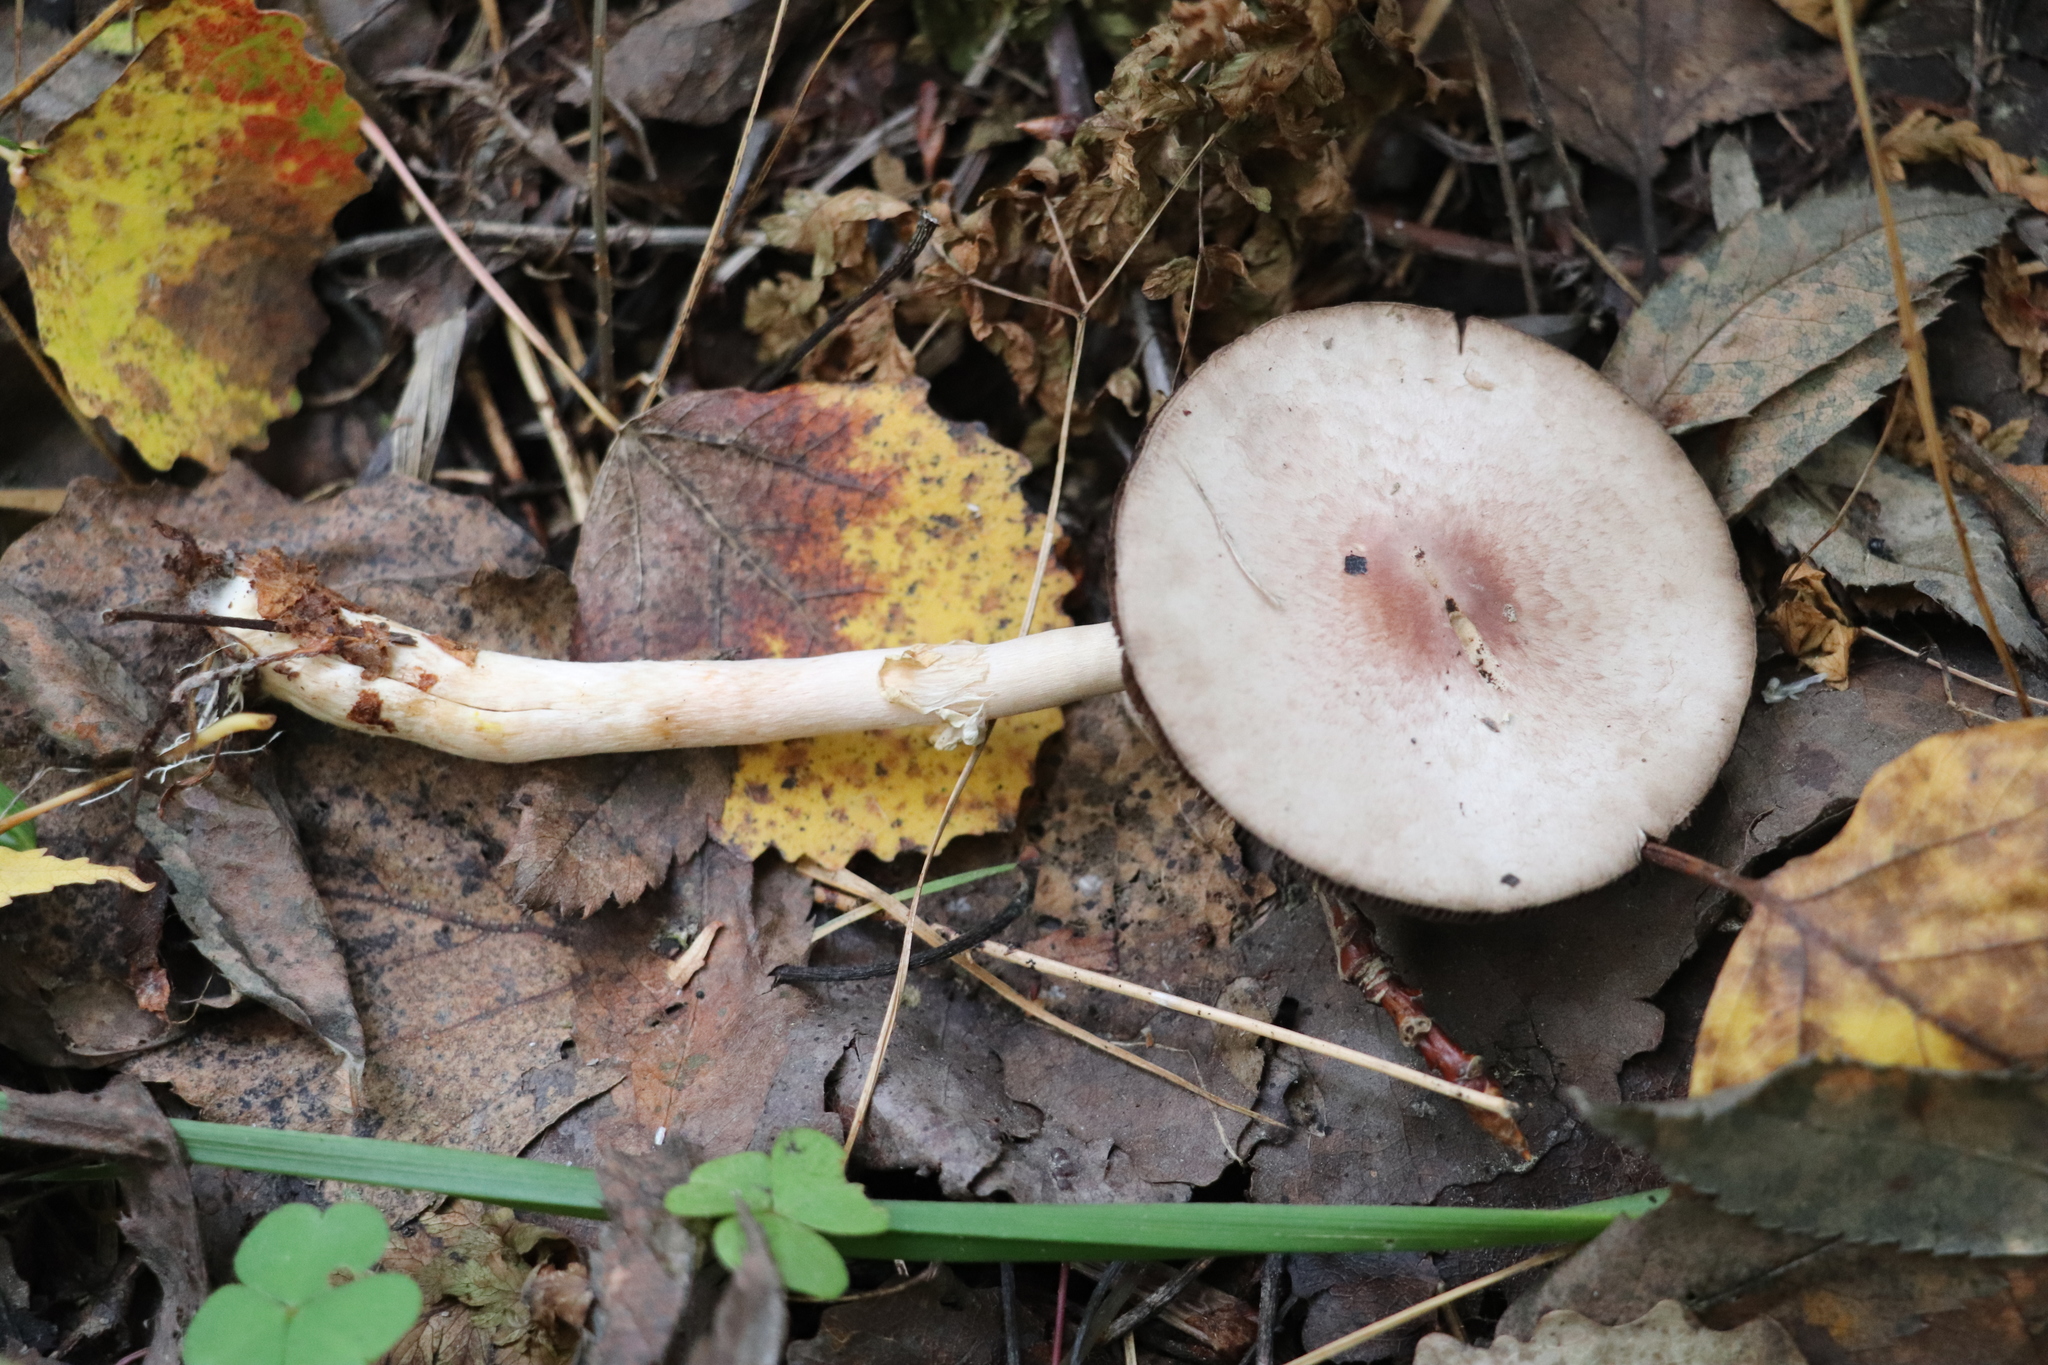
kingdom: Fungi
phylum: Basidiomycota
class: Agaricomycetes
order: Agaricales
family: Agaricaceae
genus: Agaricus
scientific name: Agaricus semotus
